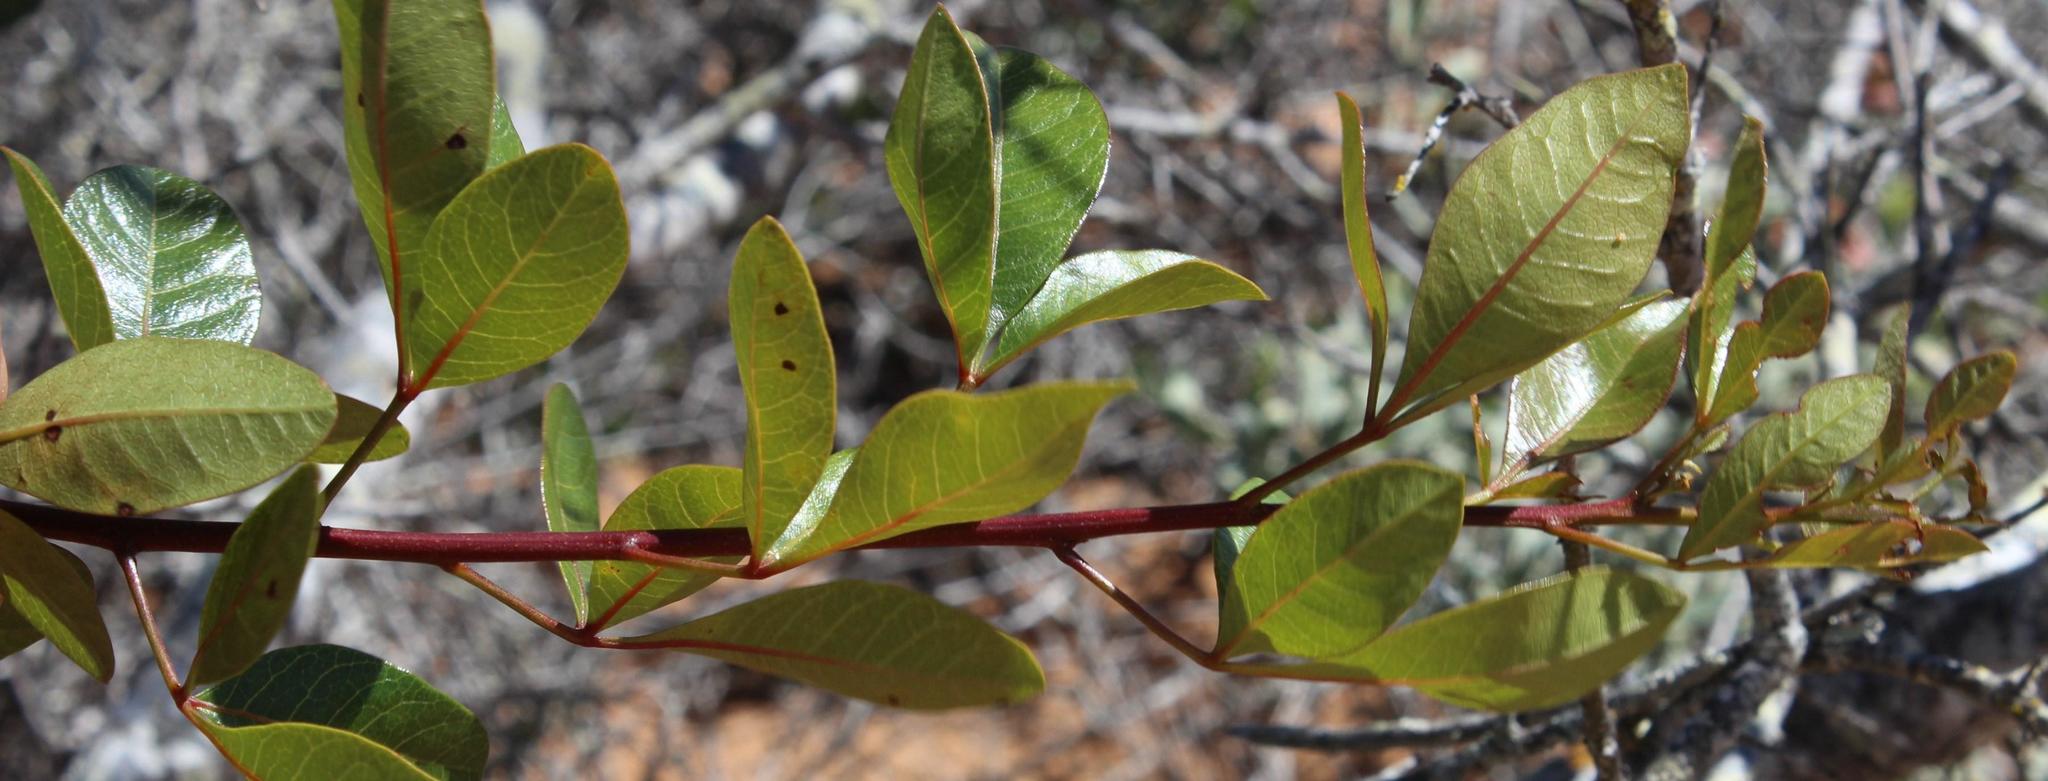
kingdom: Plantae
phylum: Tracheophyta
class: Magnoliopsida
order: Sapindales
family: Anacardiaceae
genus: Searsia
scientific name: Searsia laevigata
